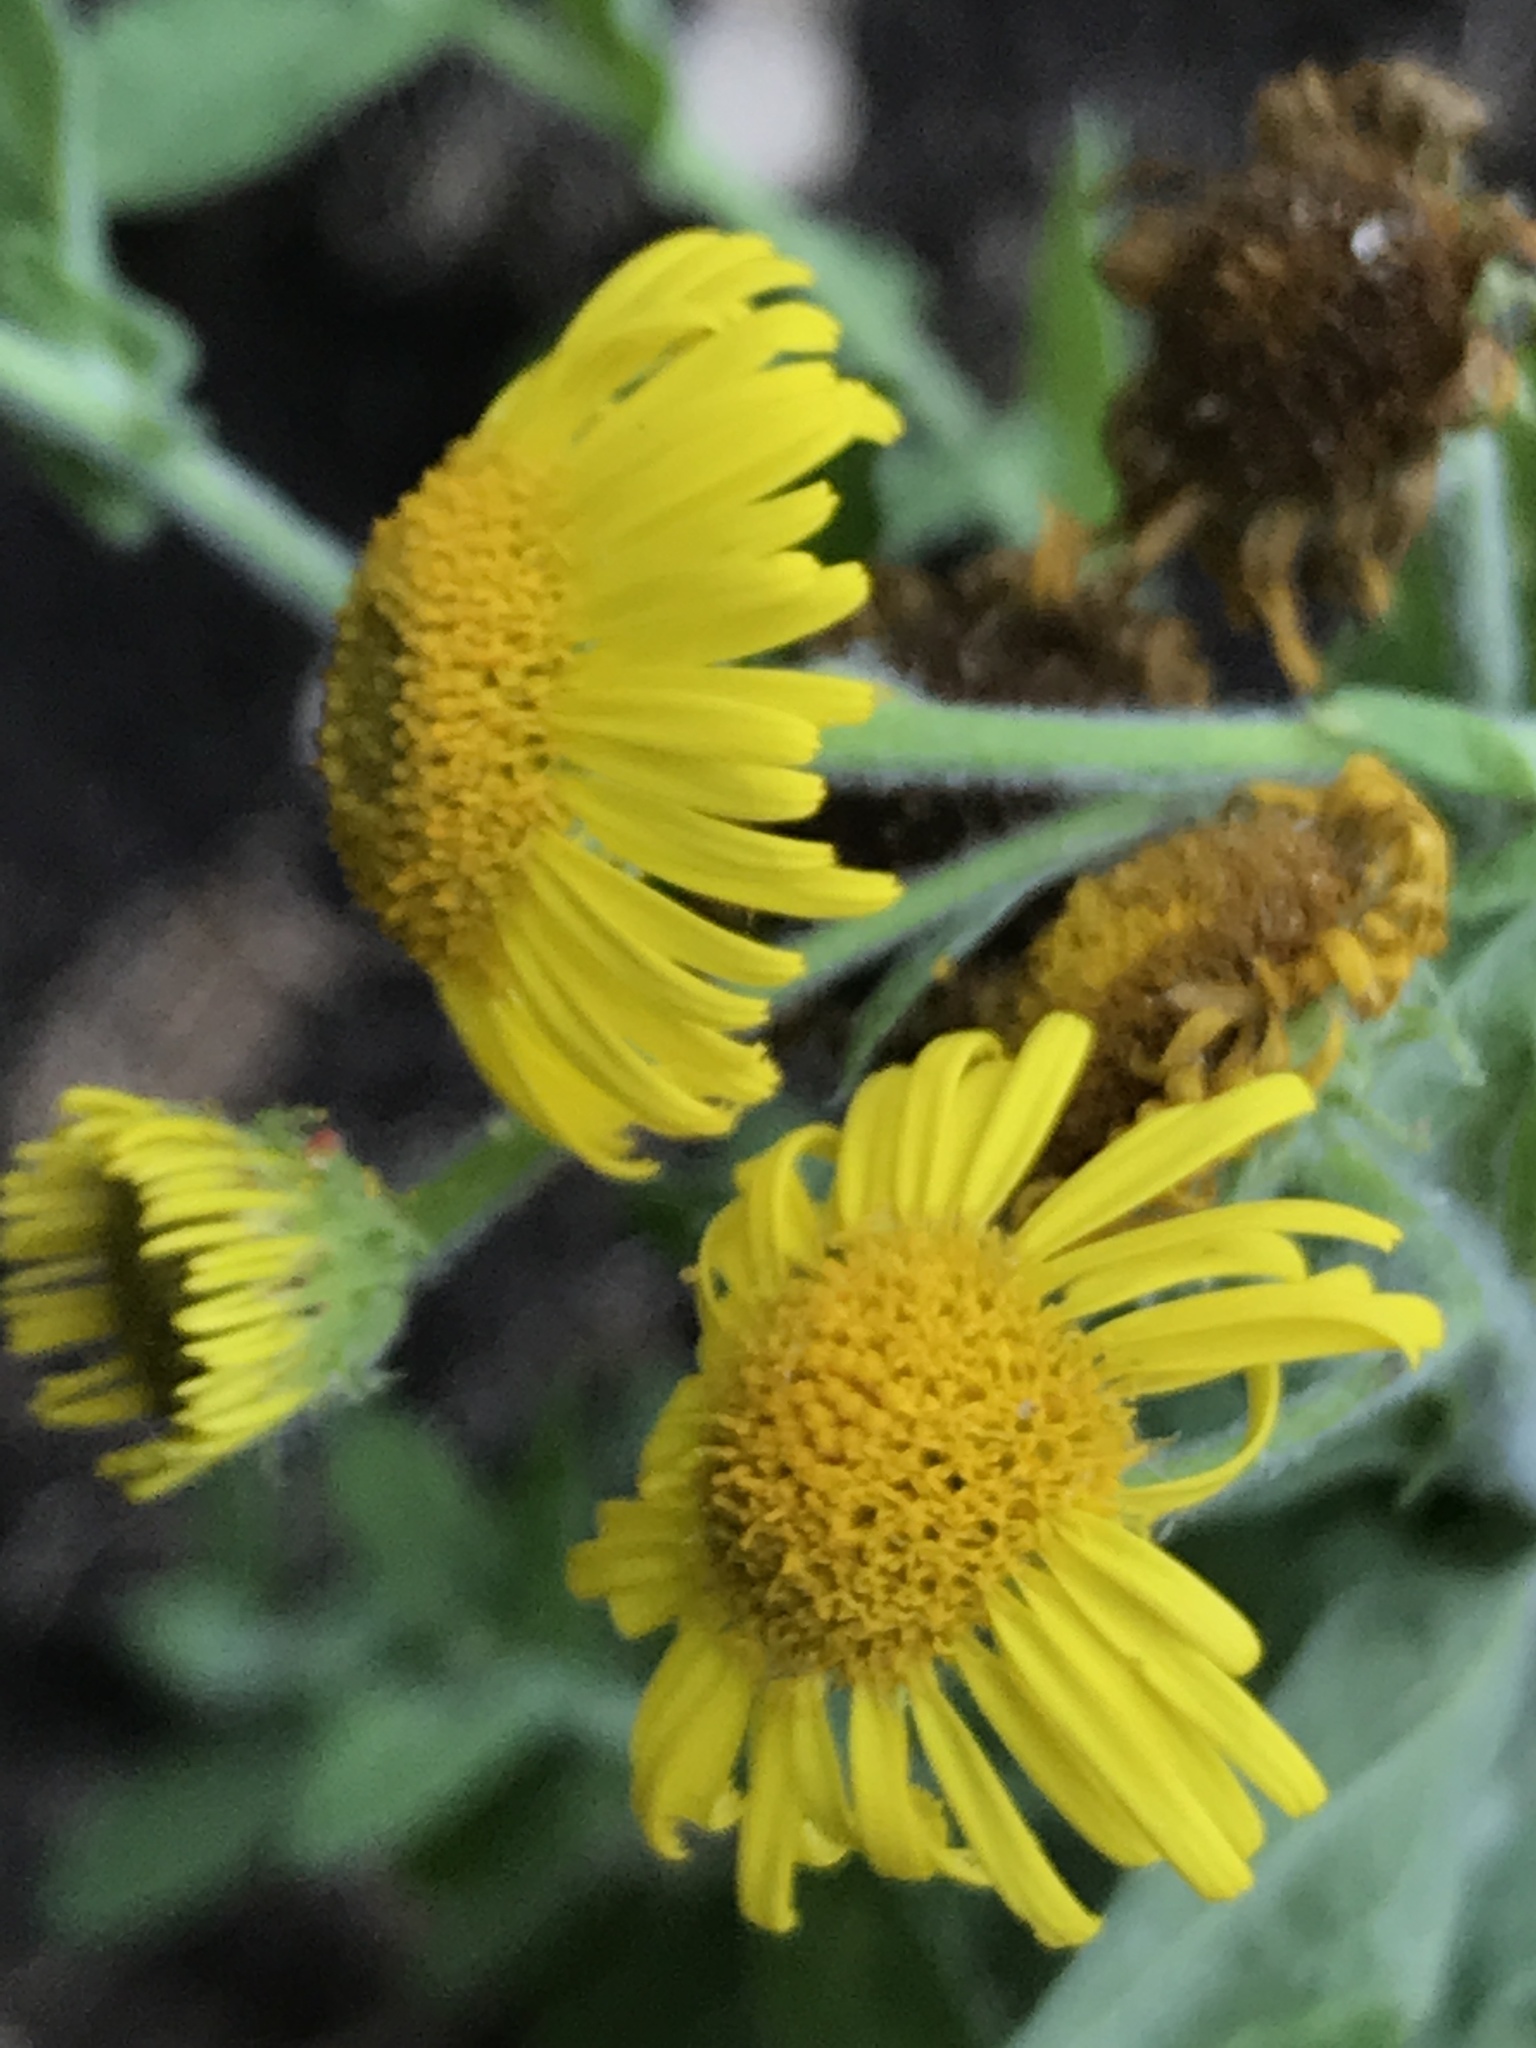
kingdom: Plantae
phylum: Tracheophyta
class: Magnoliopsida
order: Asterales
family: Asteraceae
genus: Pulicaria
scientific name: Pulicaria dysenterica
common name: Common fleabane
